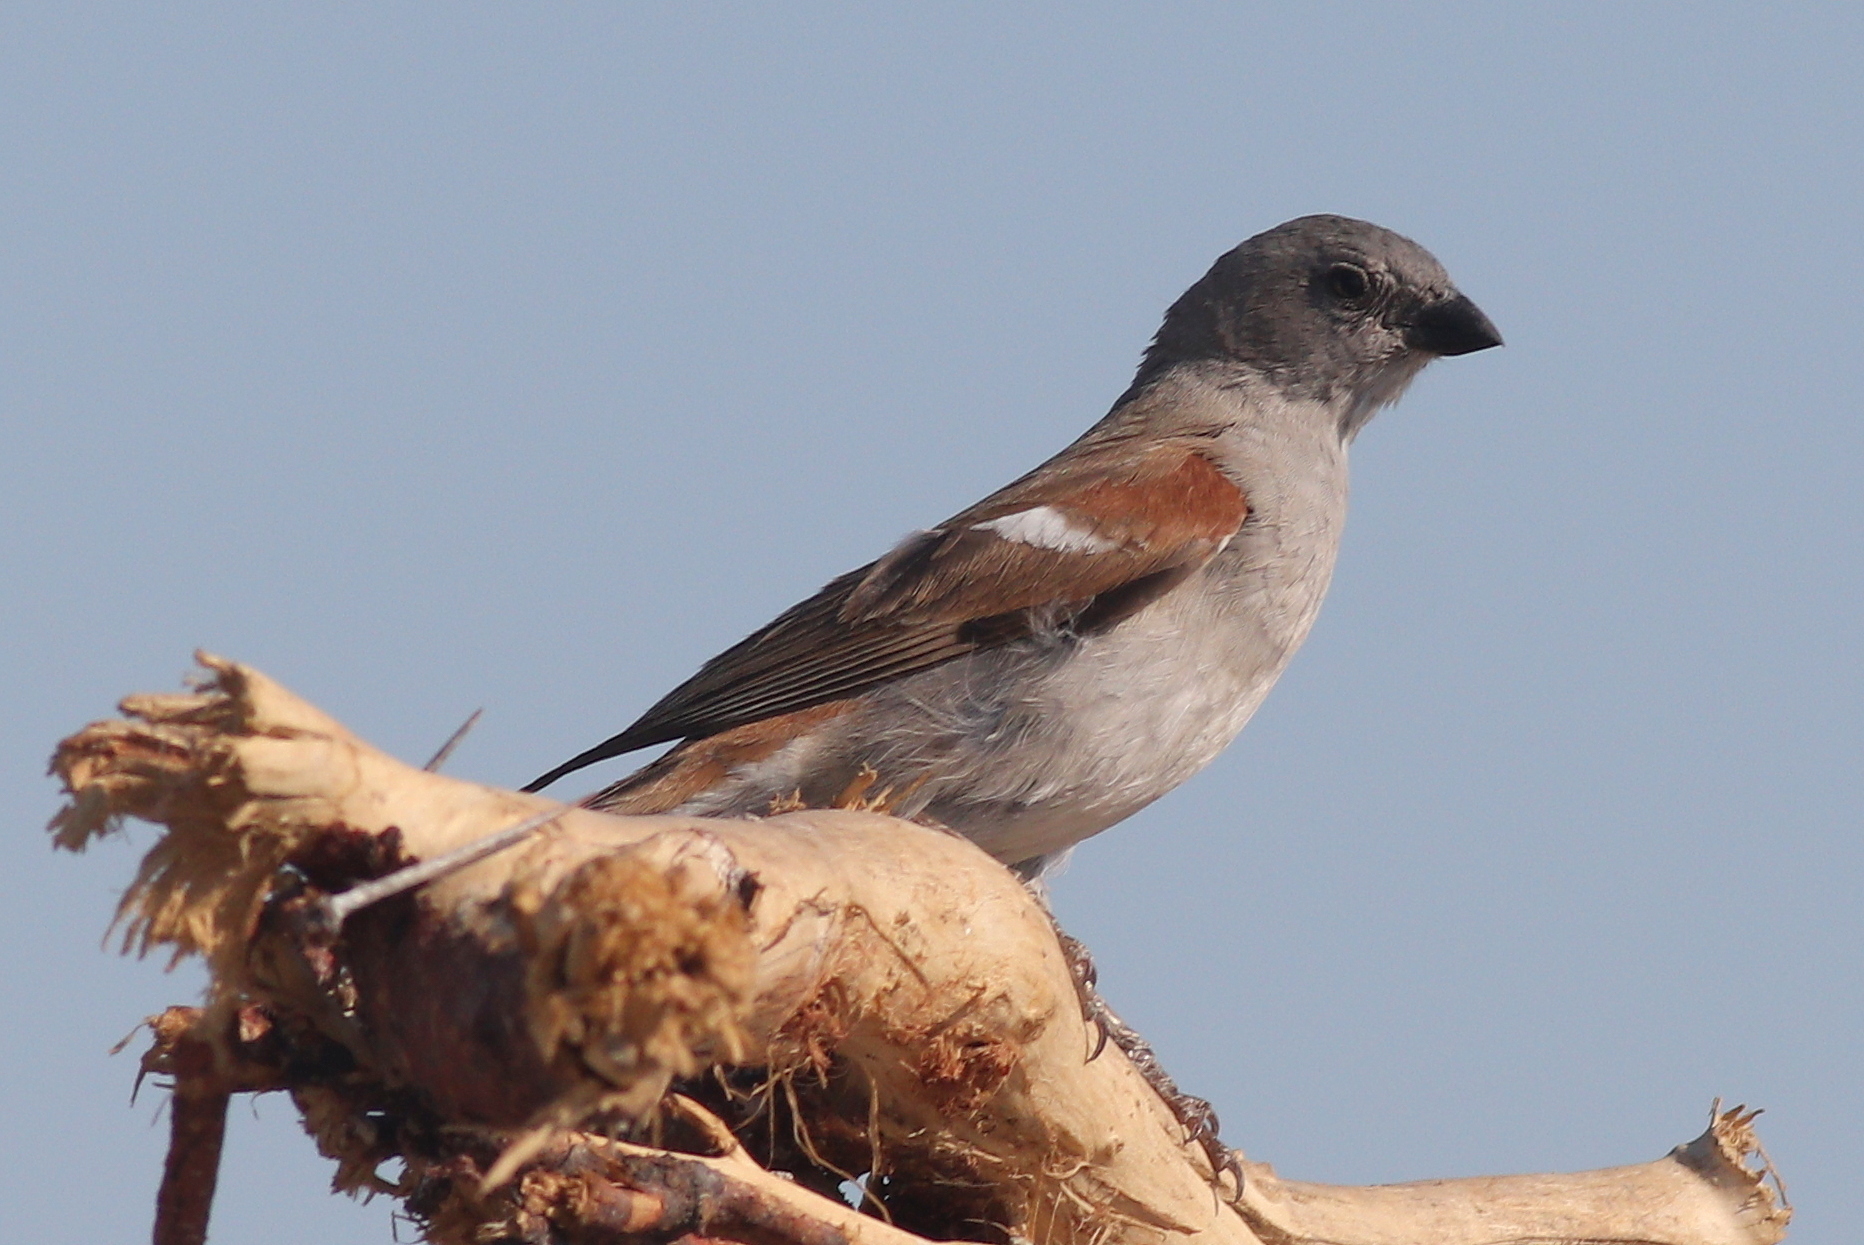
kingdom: Animalia
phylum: Chordata
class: Aves
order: Passeriformes
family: Passeridae
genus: Passer
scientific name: Passer diffusus
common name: Southern grey-headed sparrow
